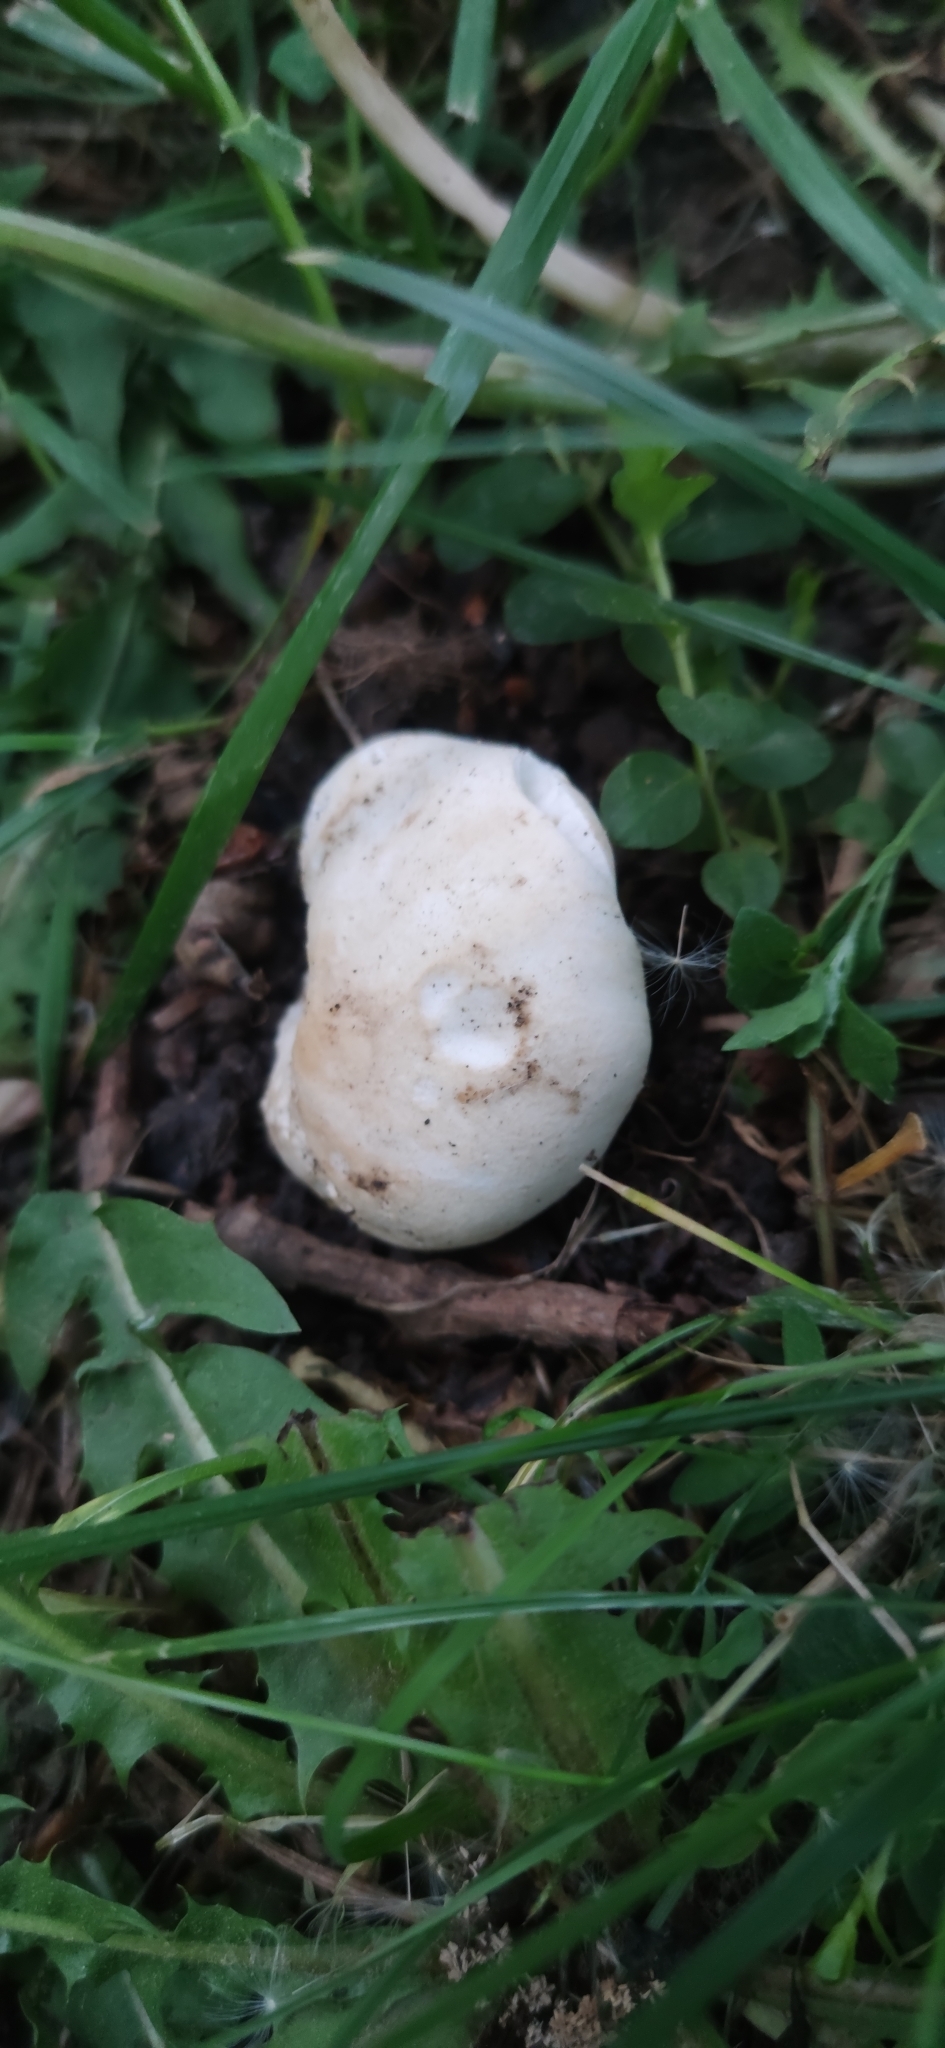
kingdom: Fungi
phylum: Basidiomycota
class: Agaricomycetes
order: Agaricales
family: Lyophyllaceae
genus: Calocybe
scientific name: Calocybe gambosa
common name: St. george's mushroom
